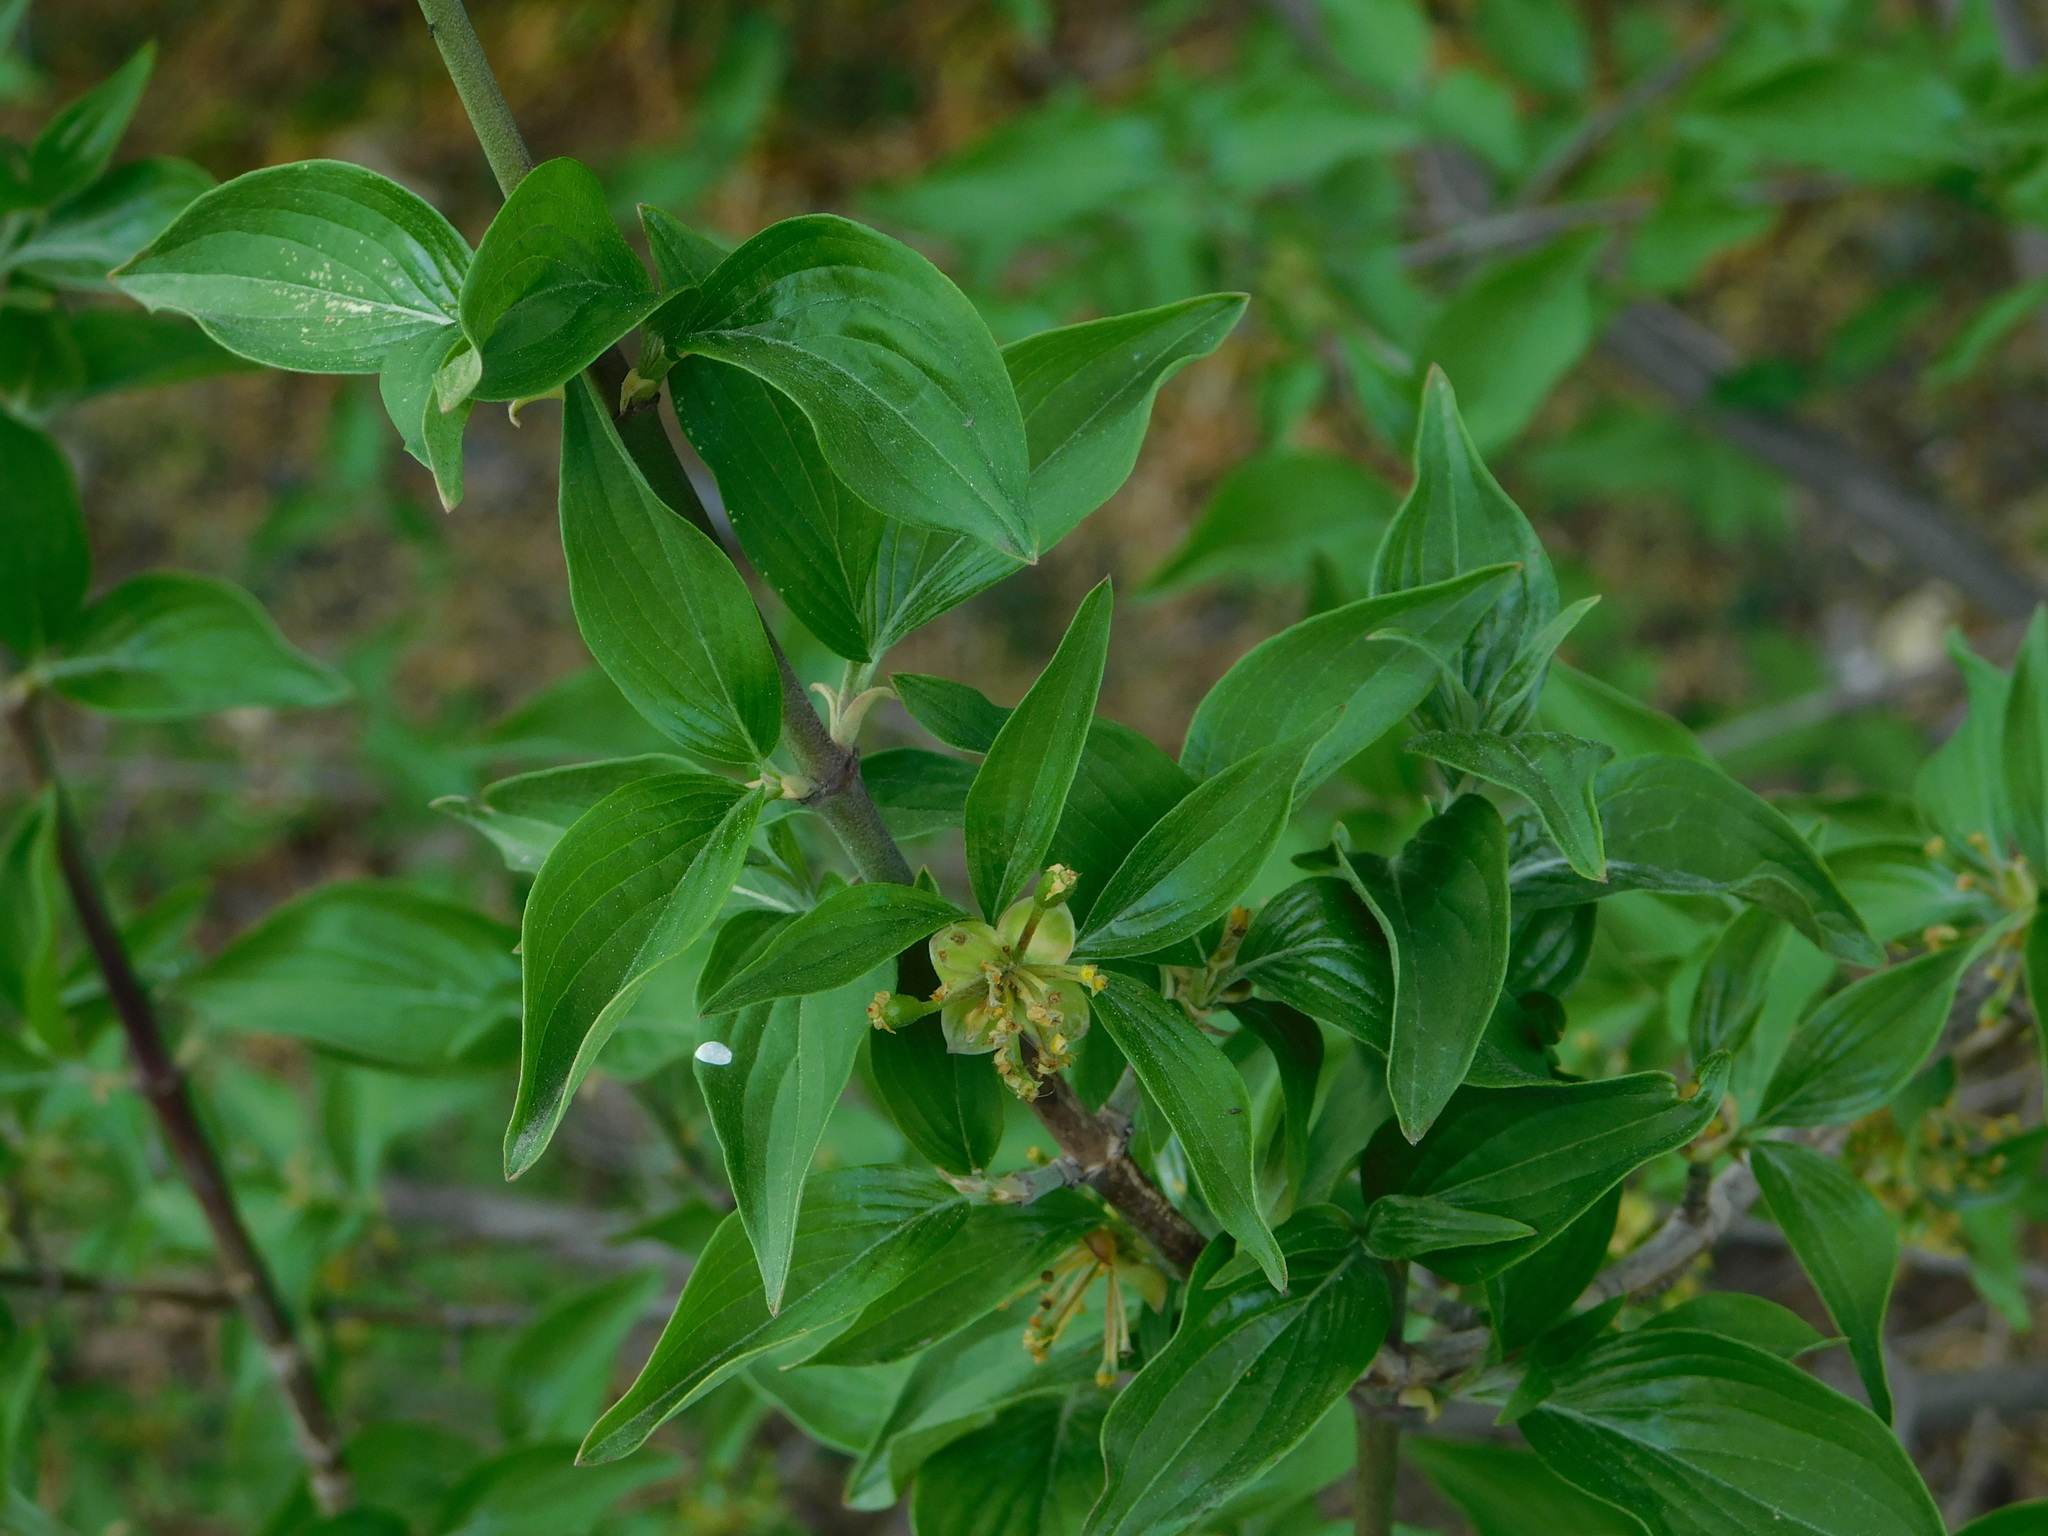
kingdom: Plantae
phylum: Tracheophyta
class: Magnoliopsida
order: Cornales
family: Cornaceae
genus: Cornus
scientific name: Cornus mas
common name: Cornelian-cherry
